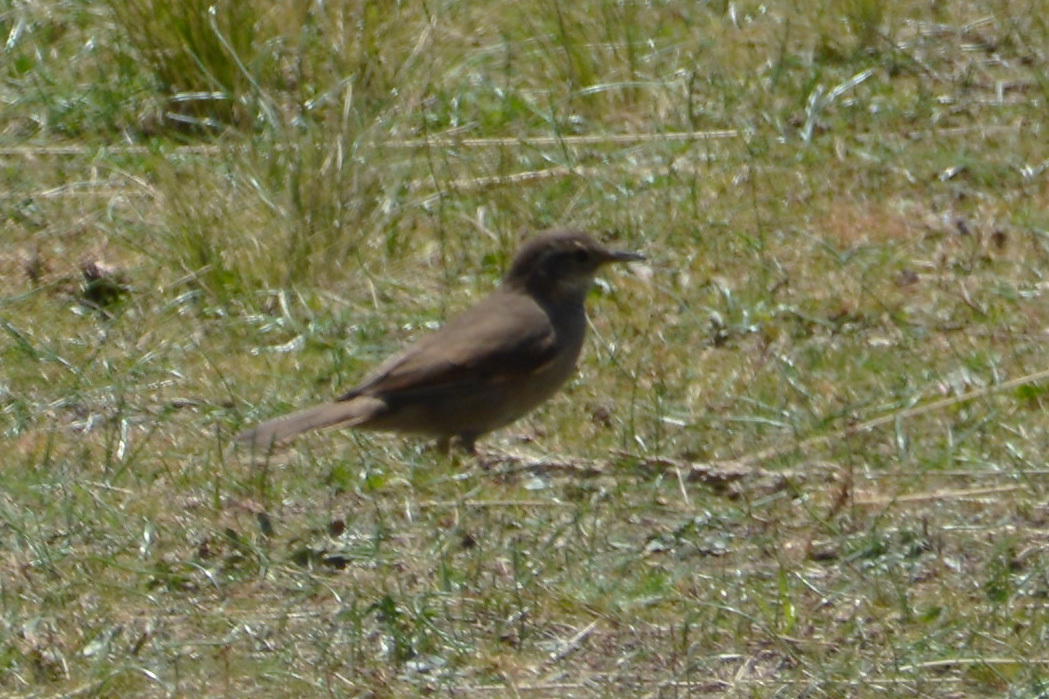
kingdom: Animalia
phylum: Chordata
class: Aves
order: Passeriformes
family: Furnariidae
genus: Cinclodes
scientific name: Cinclodes comechingonus
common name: Cordoba cinclodes
